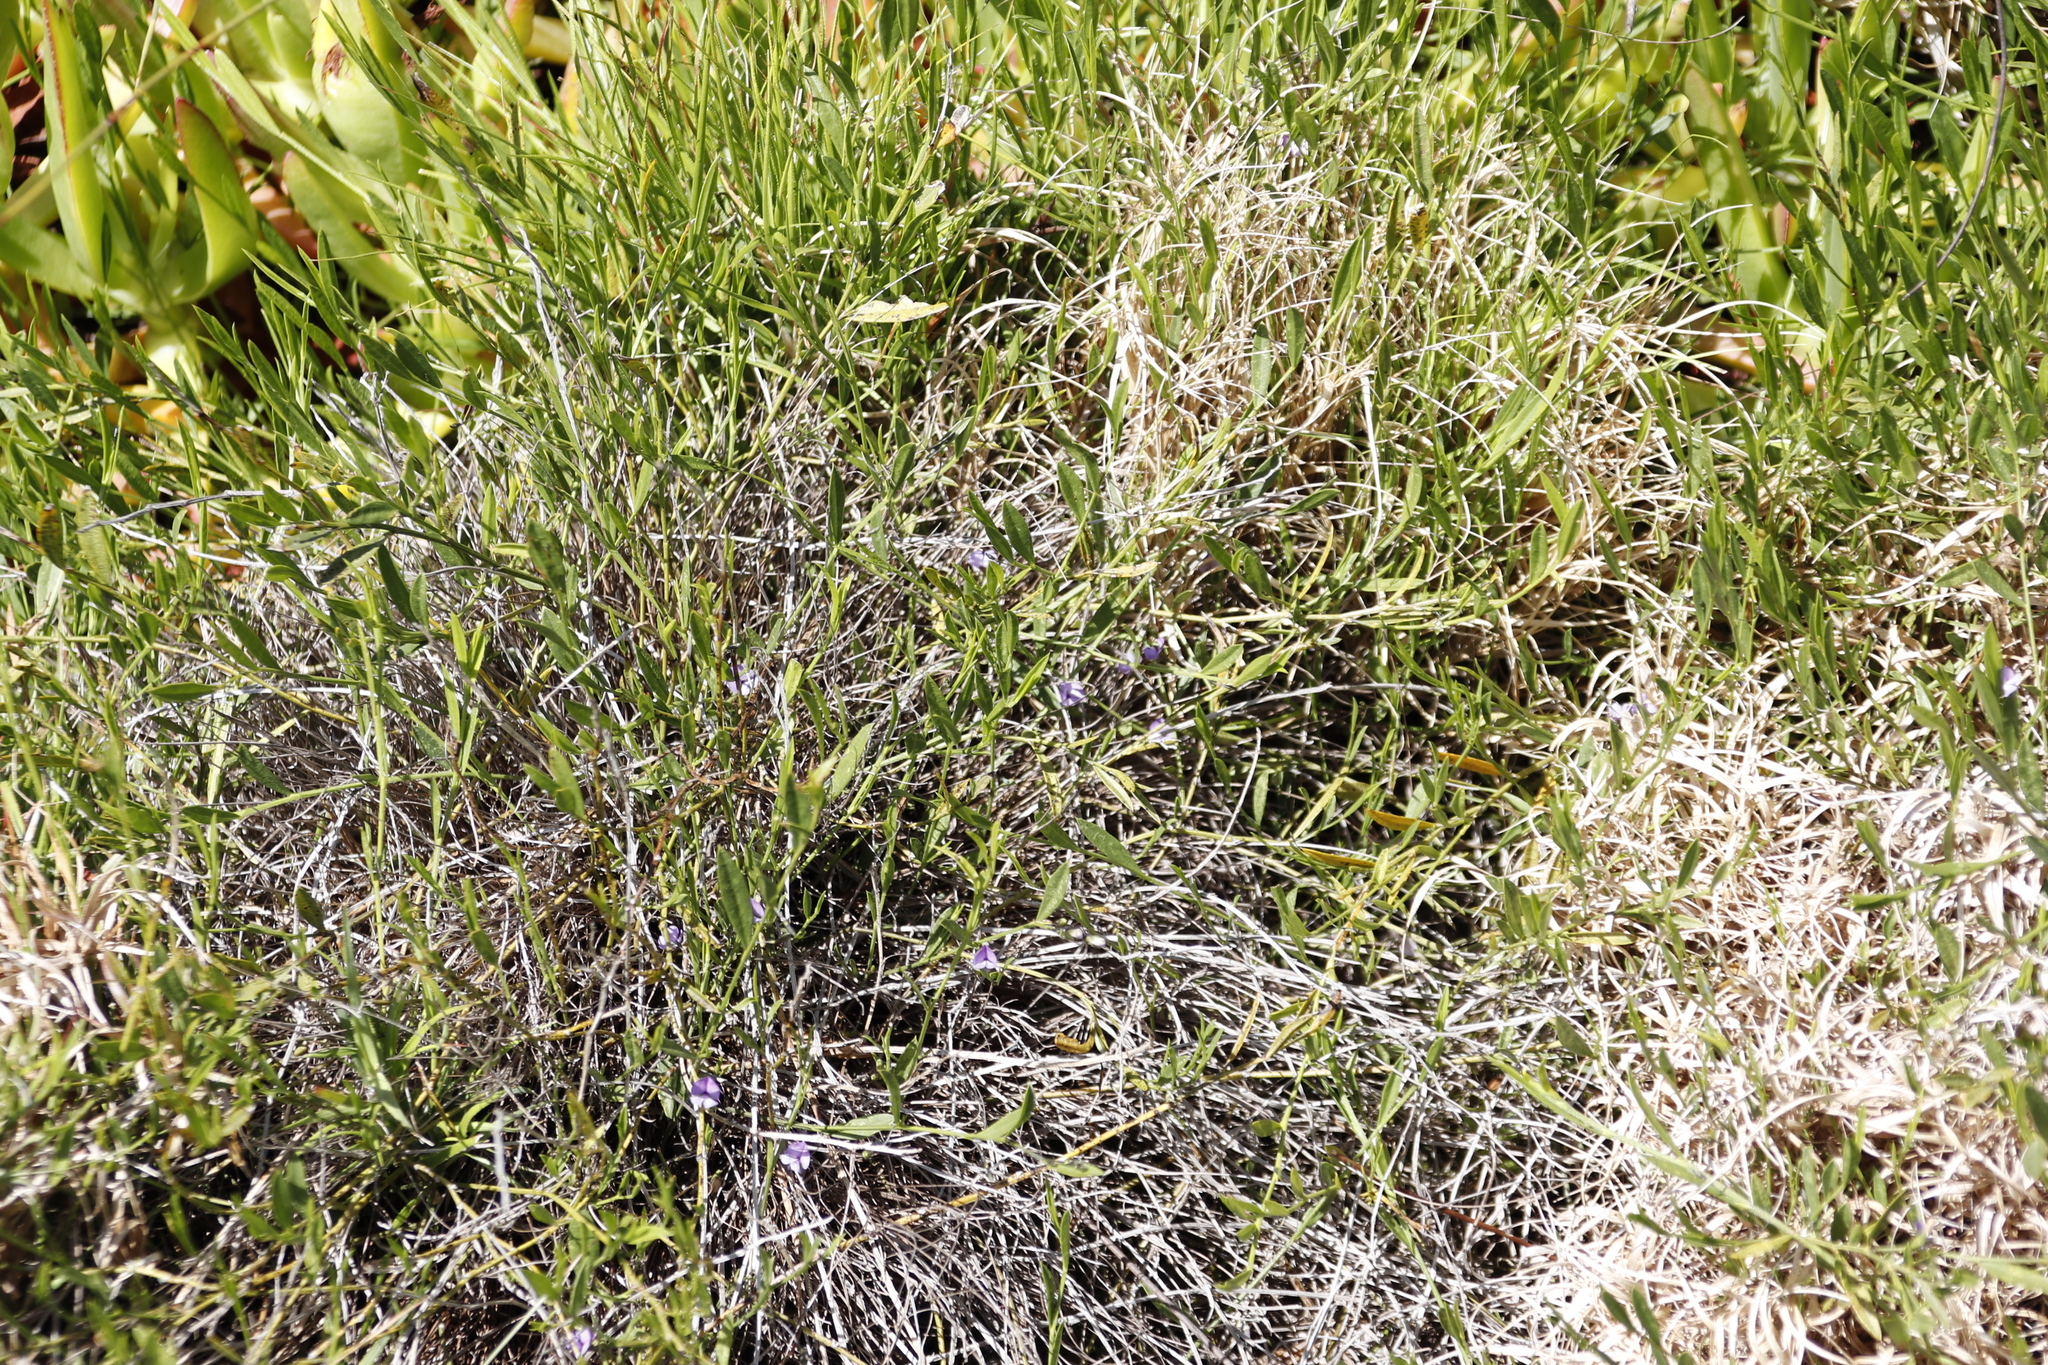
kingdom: Plantae
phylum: Tracheophyta
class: Magnoliopsida
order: Fabales
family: Fabaceae
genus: Psoralea
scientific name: Psoralea laxa
